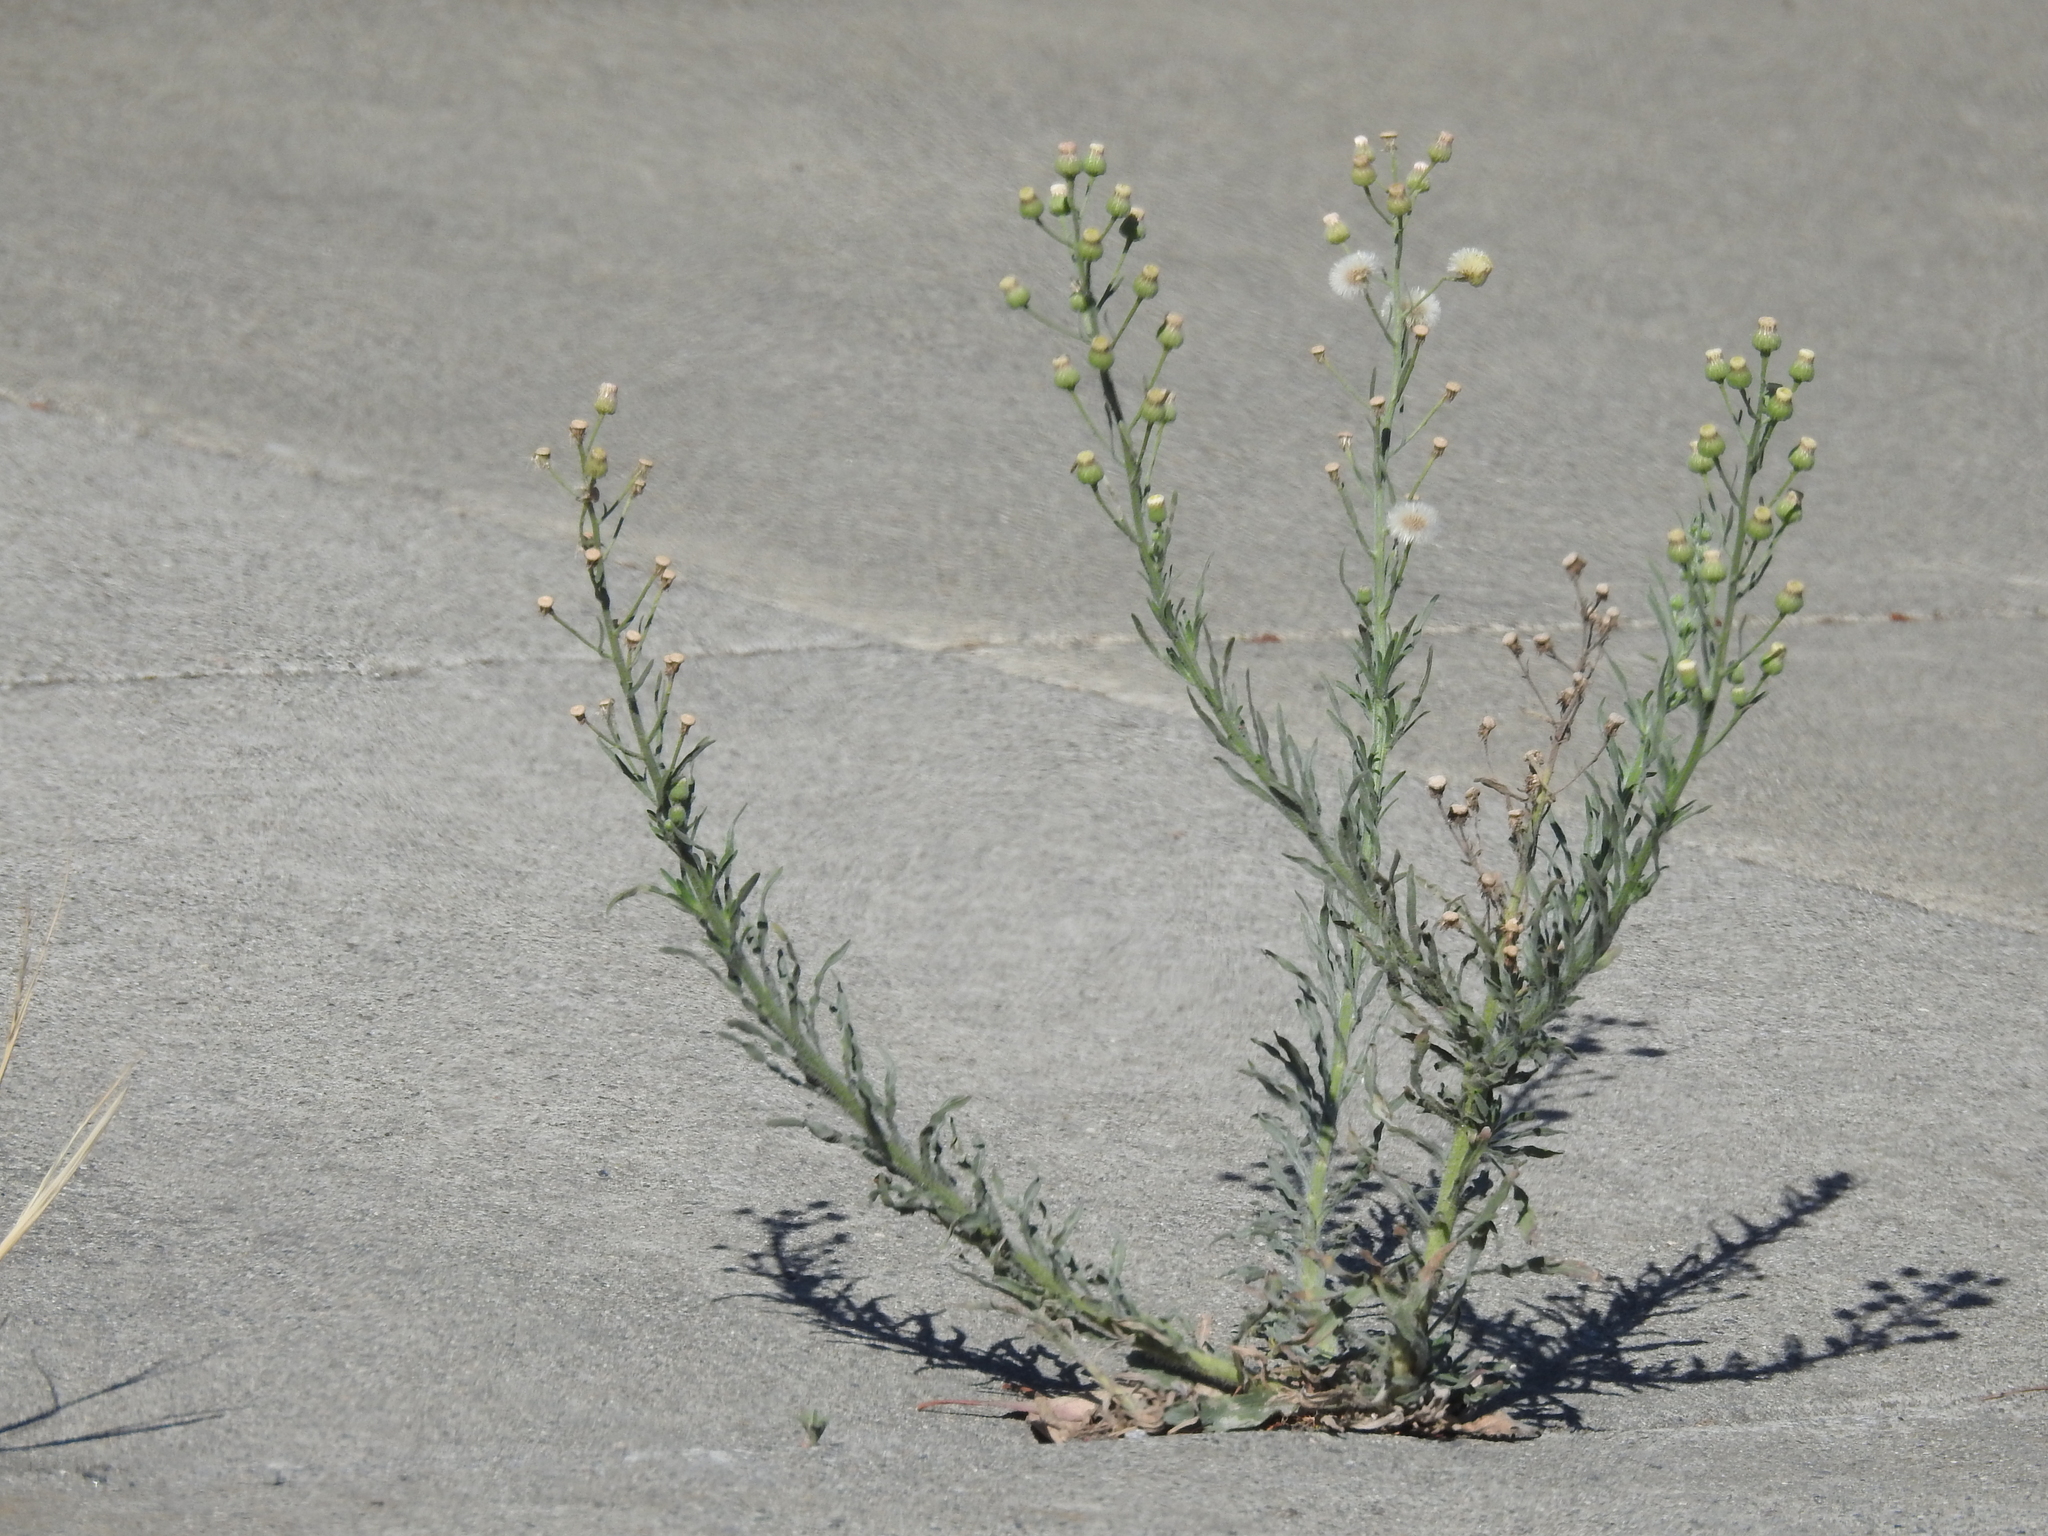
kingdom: Plantae
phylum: Tracheophyta
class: Magnoliopsida
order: Asterales
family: Asteraceae
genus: Erigeron
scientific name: Erigeron bonariensis
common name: Argentine fleabane
